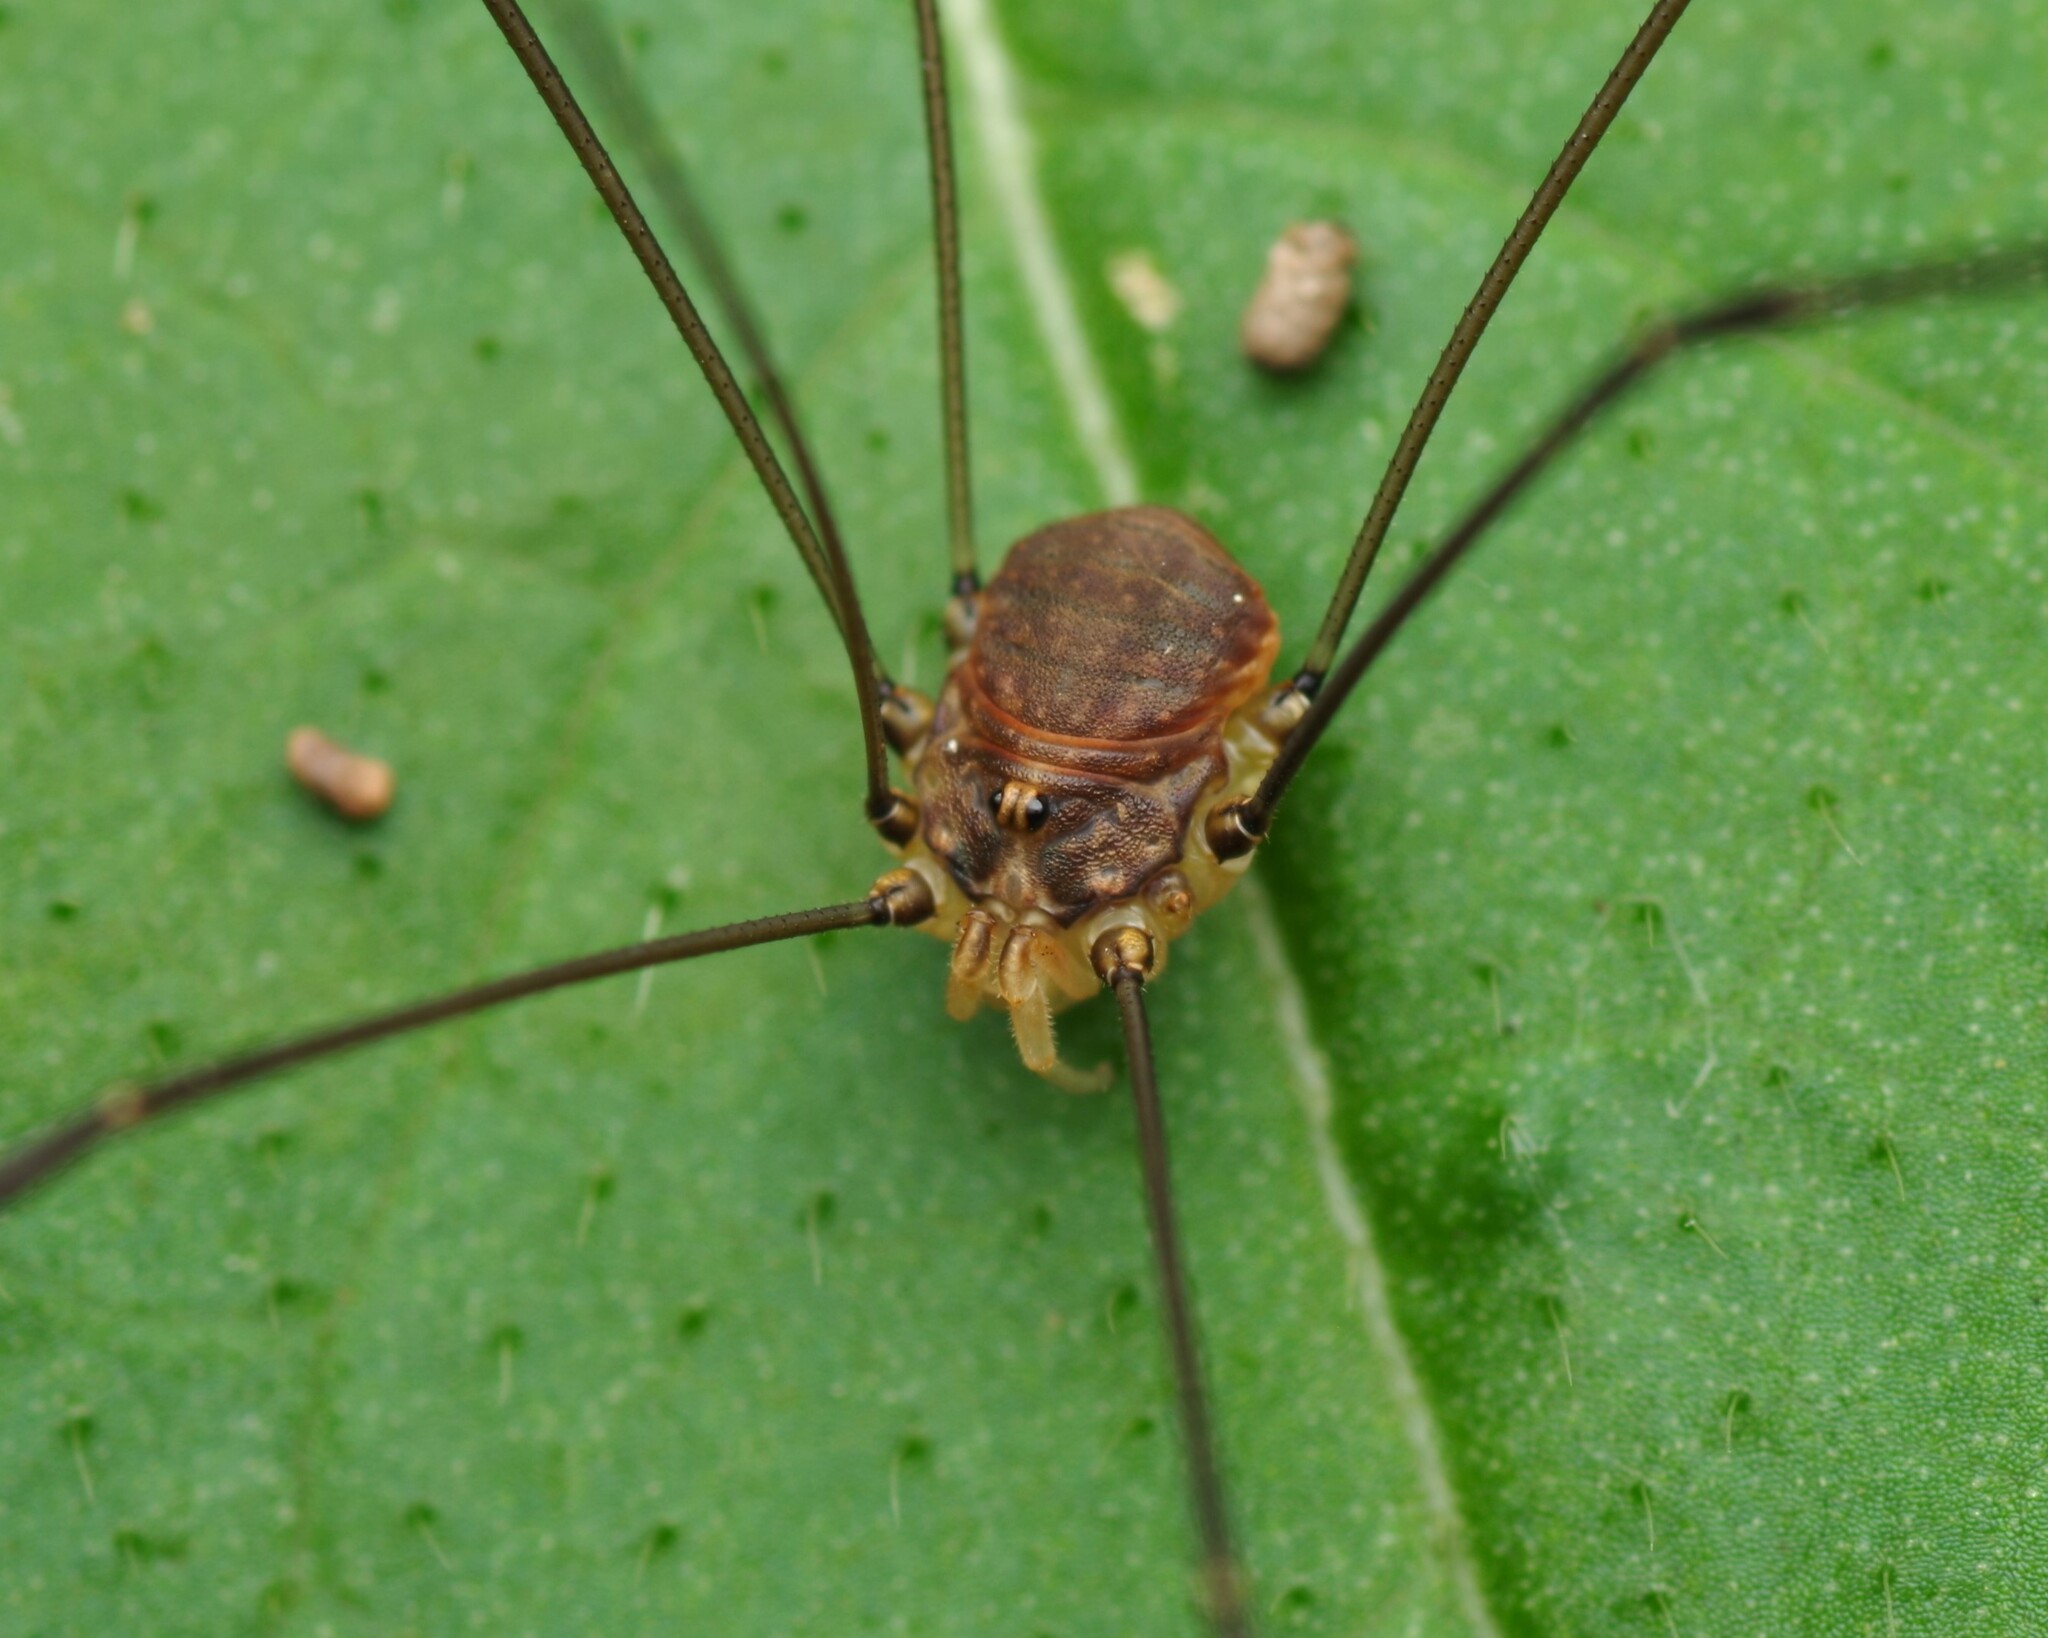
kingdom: Animalia
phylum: Arthropoda
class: Arachnida
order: Opiliones
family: Sclerosomatidae
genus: Leiobunum
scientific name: Leiobunum blackwalli
